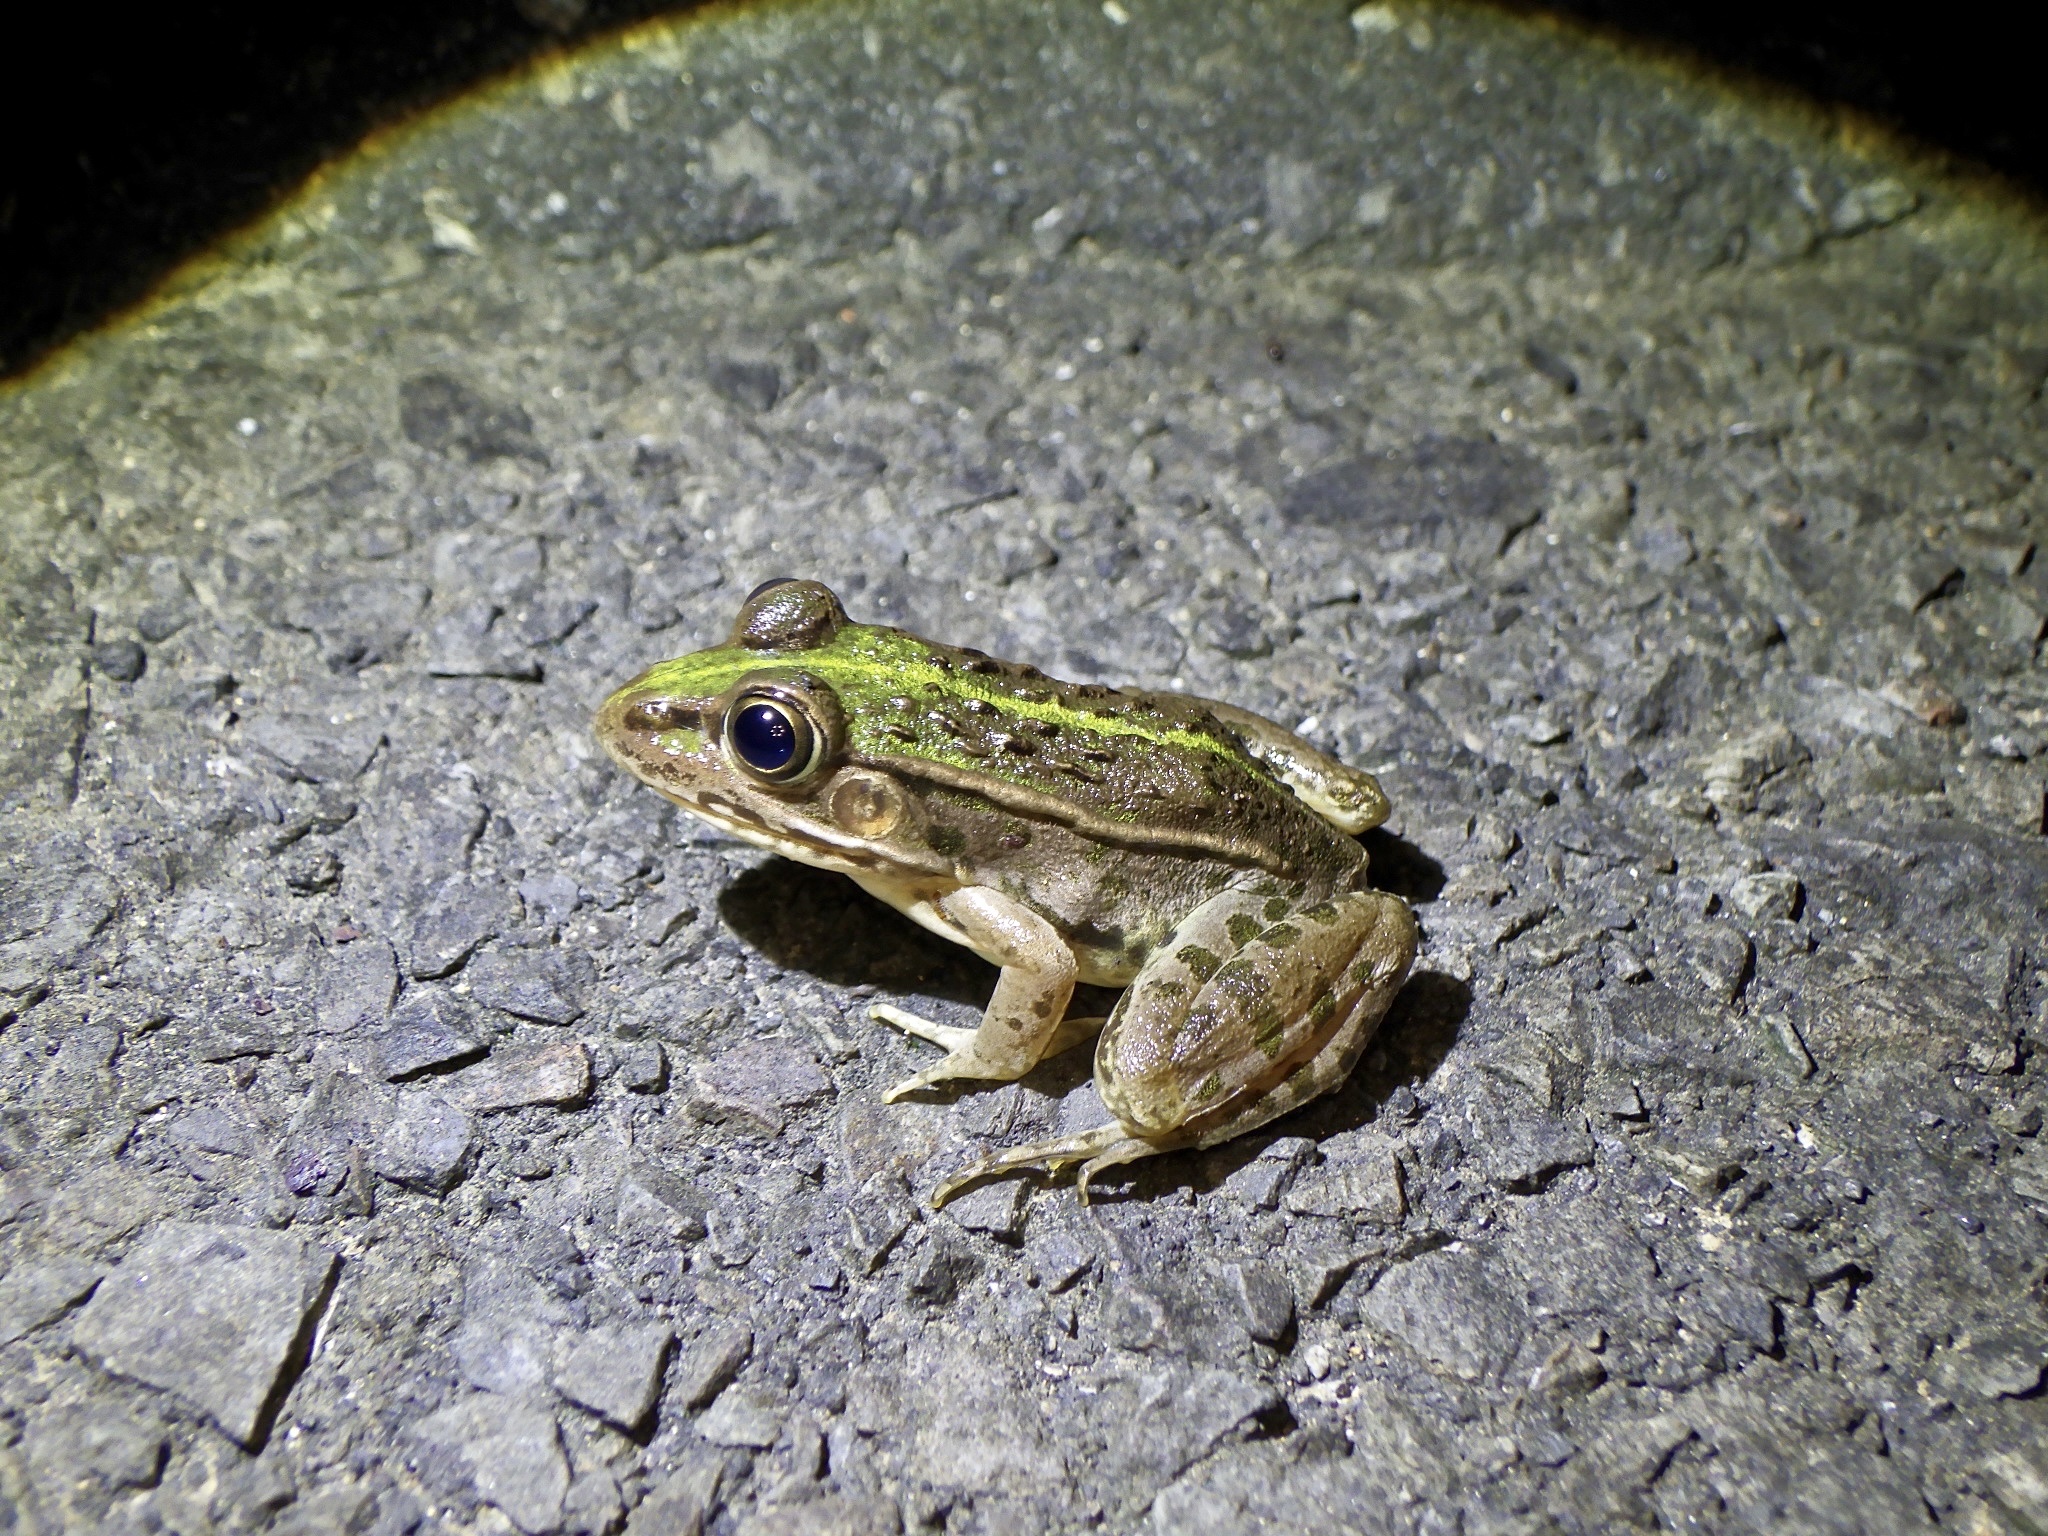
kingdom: Animalia
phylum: Chordata
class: Amphibia
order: Anura
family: Ranidae
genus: Pelophylax
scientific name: Pelophylax nigromaculatus
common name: Black-spotted pond frog
